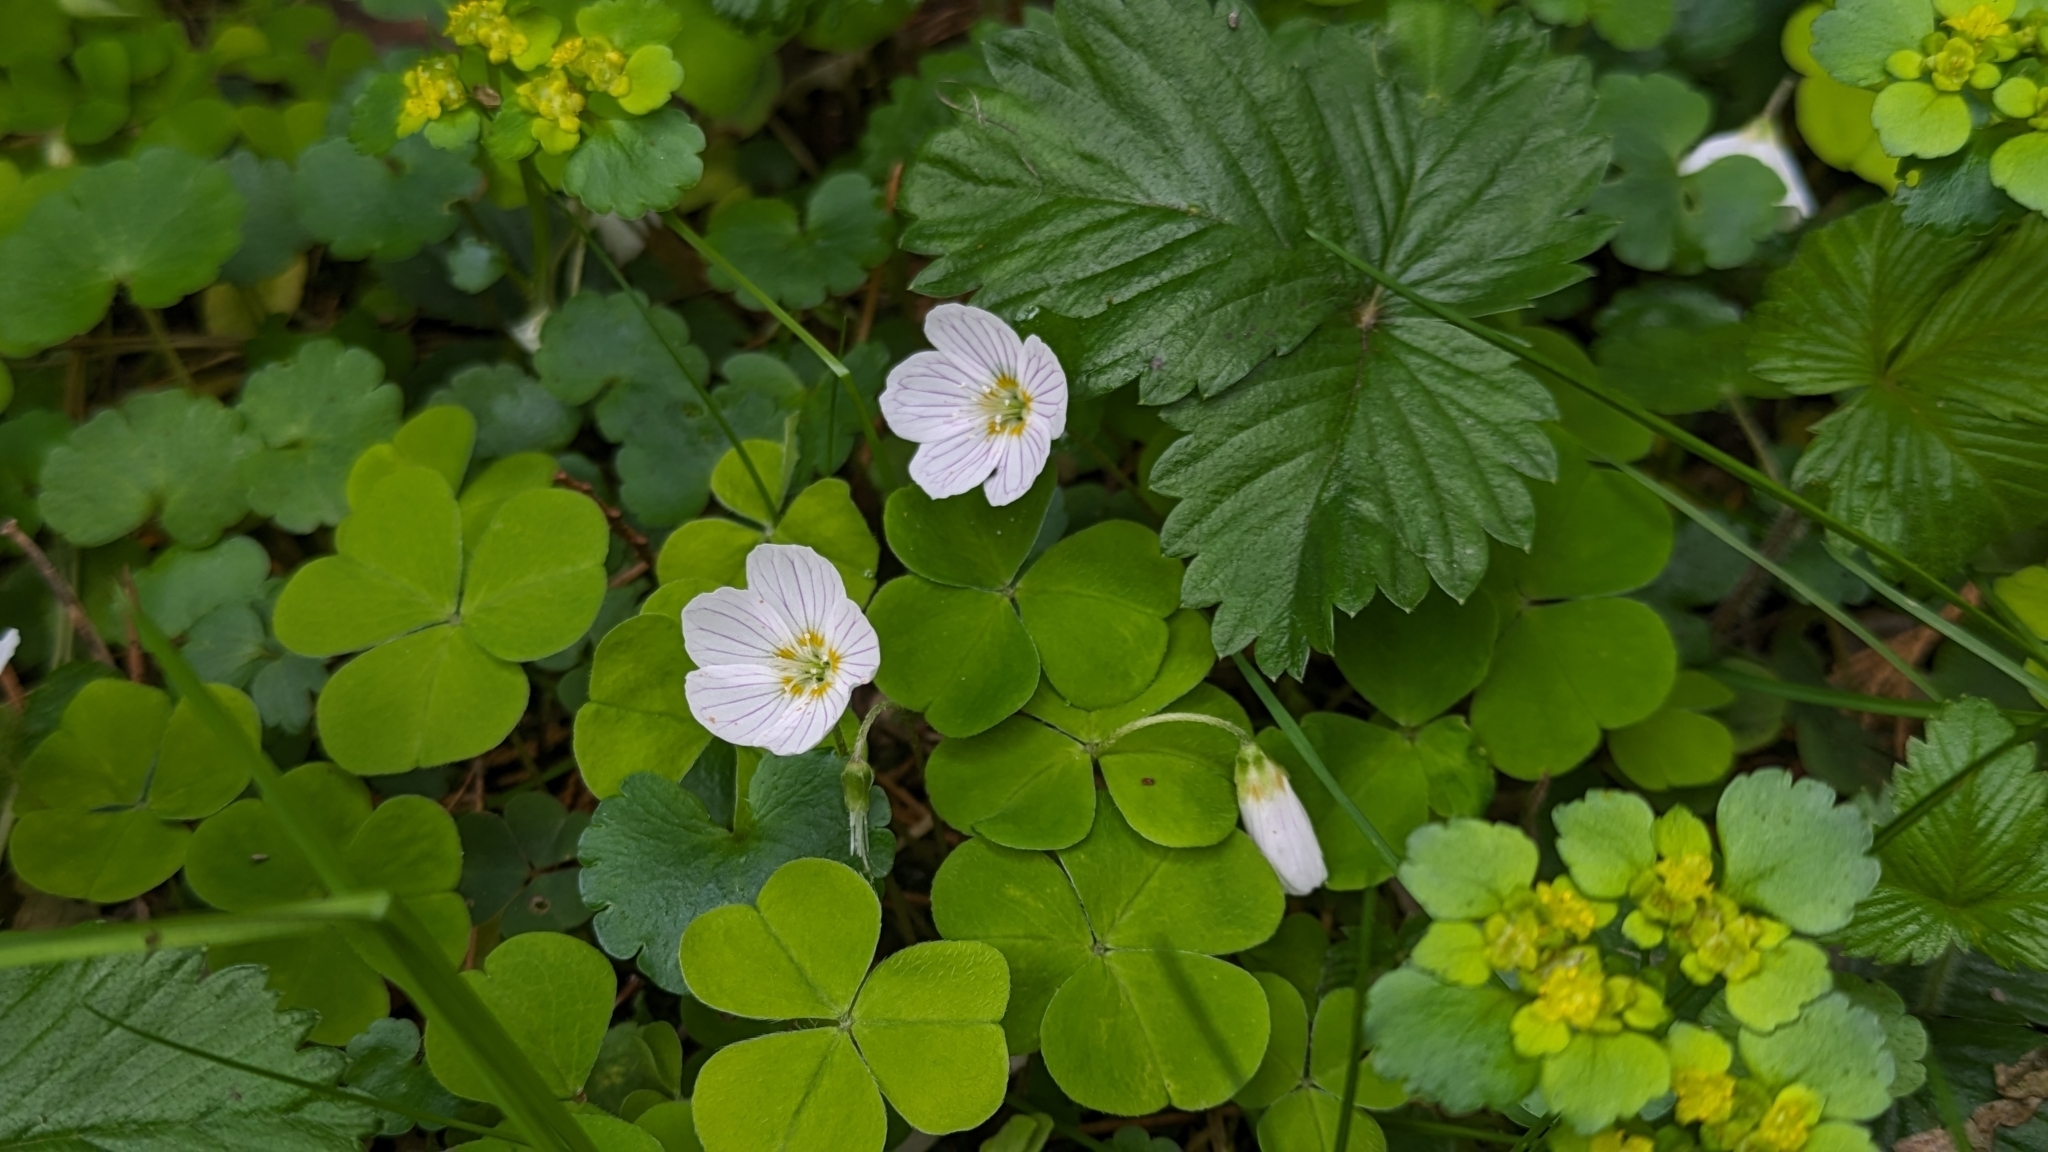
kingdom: Plantae
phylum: Tracheophyta
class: Magnoliopsida
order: Oxalidales
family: Oxalidaceae
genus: Oxalis
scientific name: Oxalis acetosella
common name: Wood-sorrel
